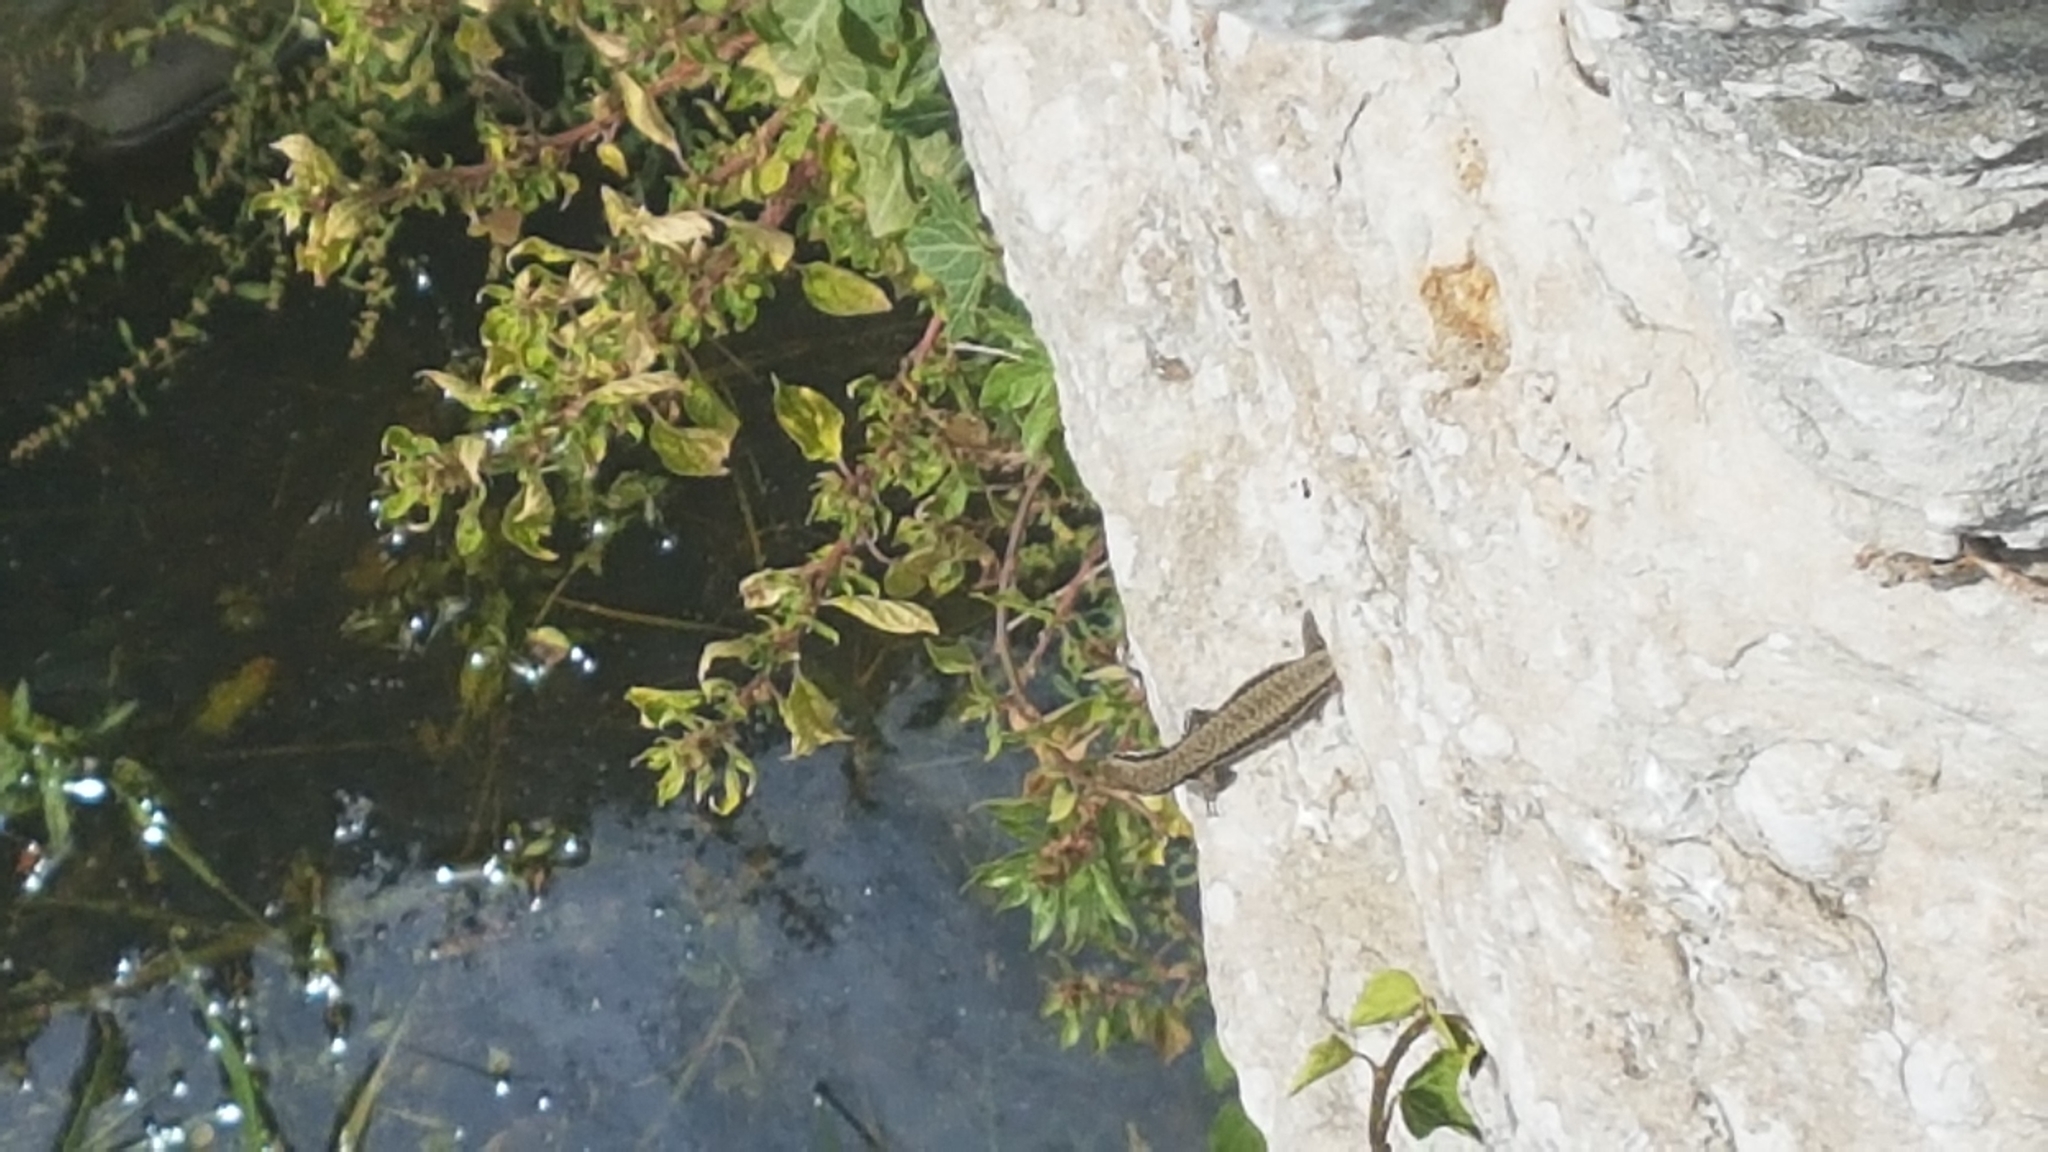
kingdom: Animalia
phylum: Chordata
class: Squamata
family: Lacertidae
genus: Podarcis
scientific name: Podarcis muralis
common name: Common wall lizard
